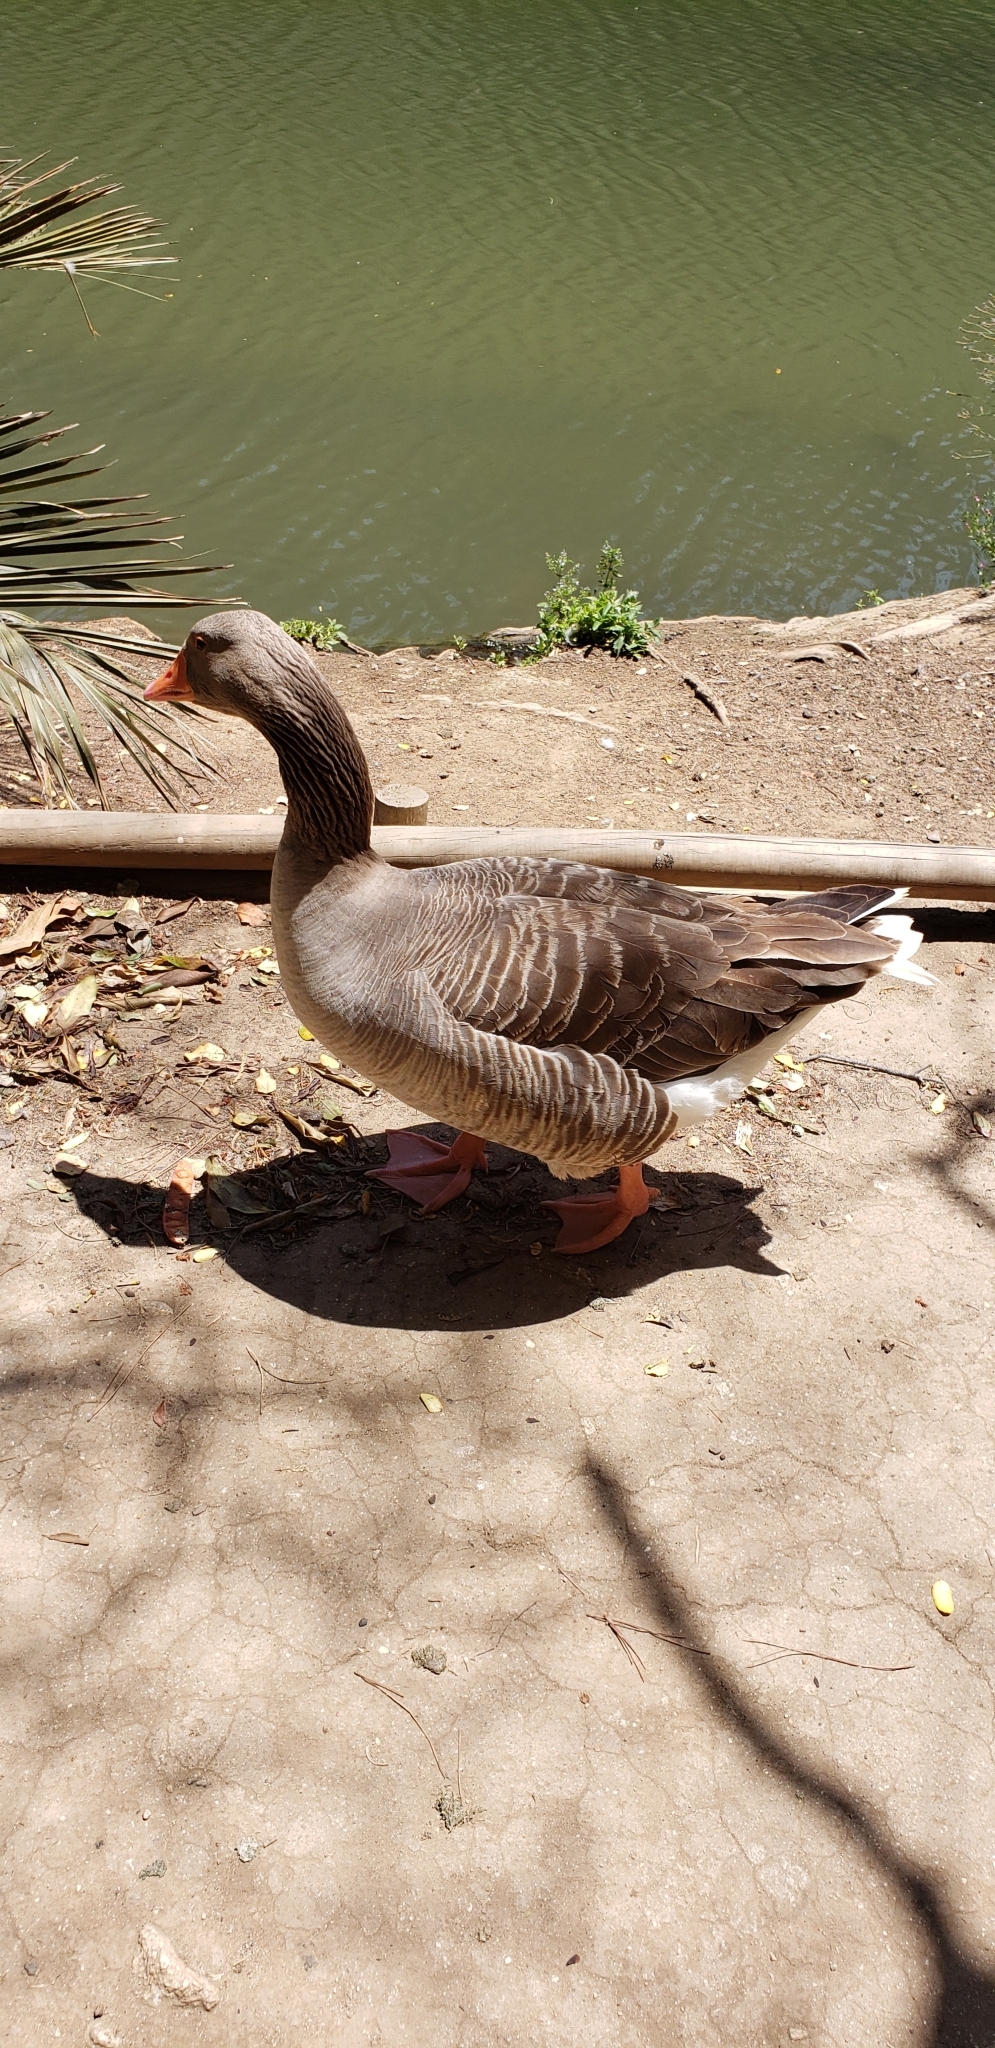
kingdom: Animalia
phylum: Chordata
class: Aves
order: Anseriformes
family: Anatidae
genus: Anser
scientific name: Anser anser
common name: Greylag goose
